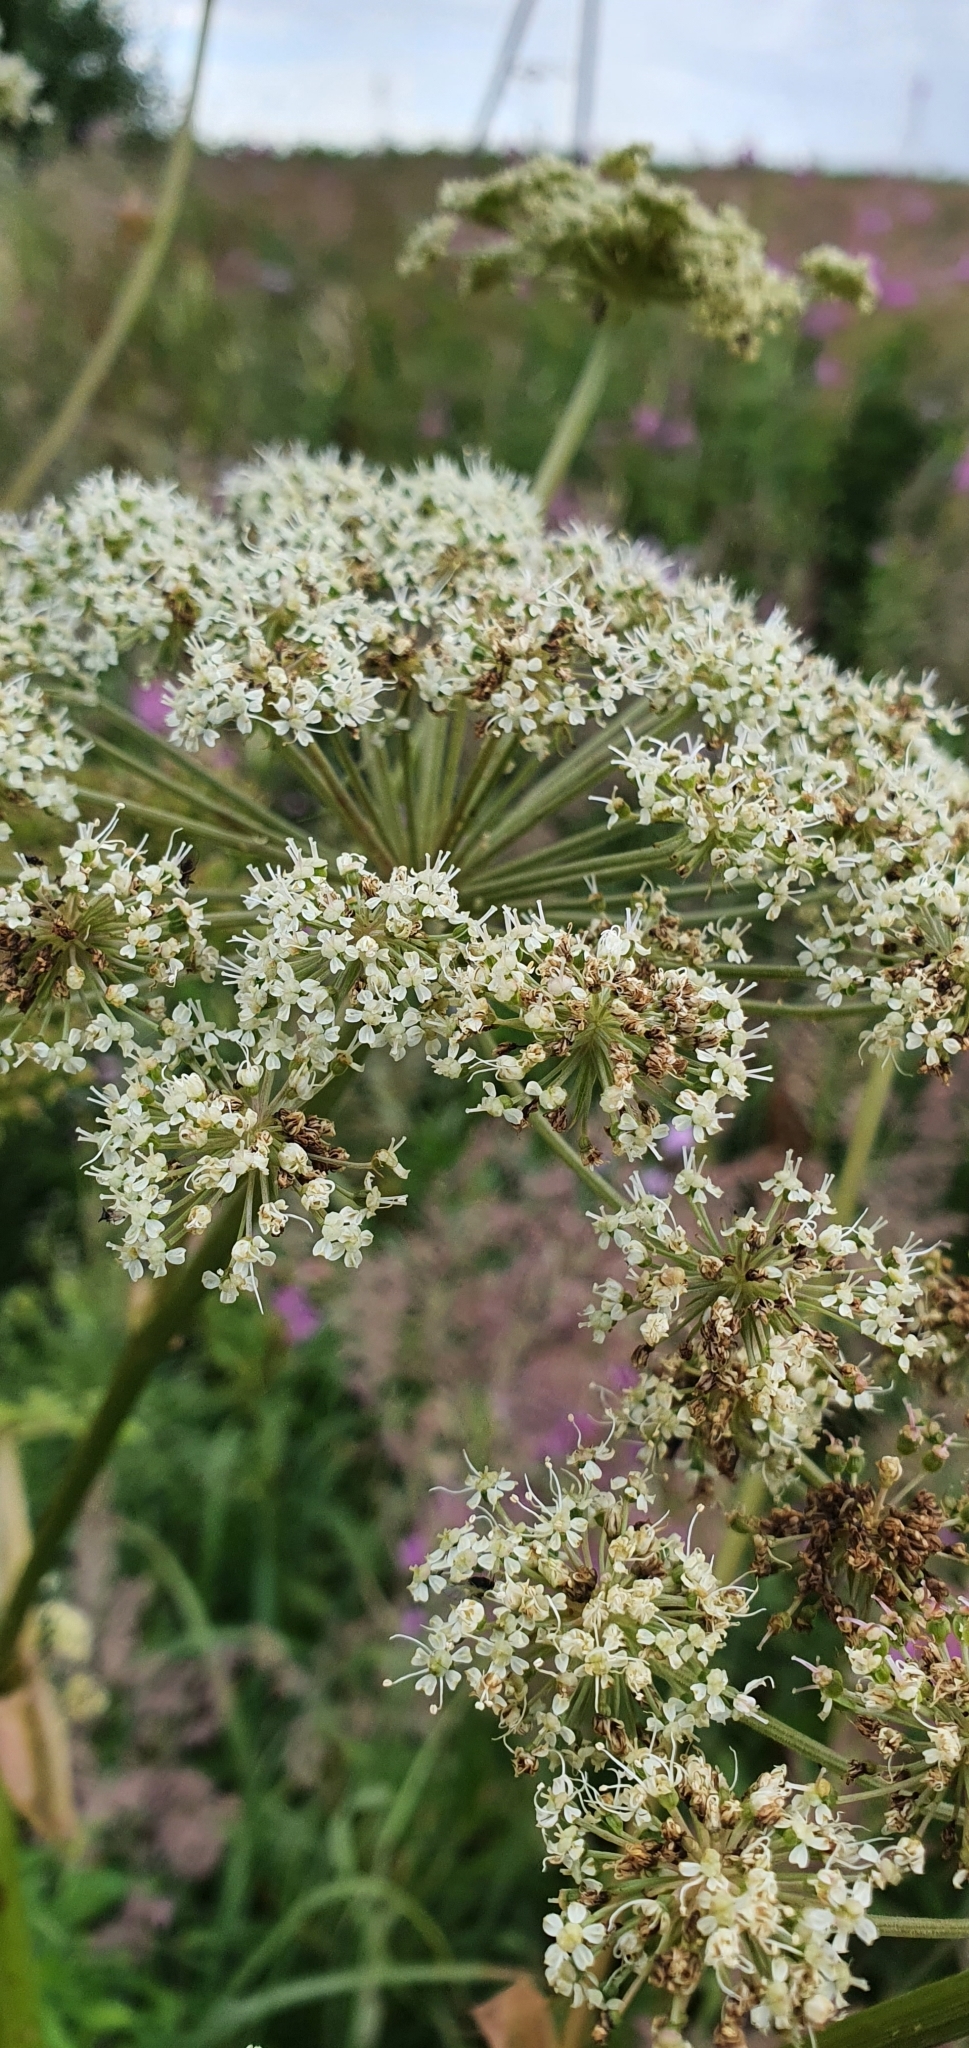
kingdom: Plantae
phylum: Tracheophyta
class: Magnoliopsida
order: Apiales
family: Apiaceae
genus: Angelica
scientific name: Angelica sylvestris
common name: Wild angelica
